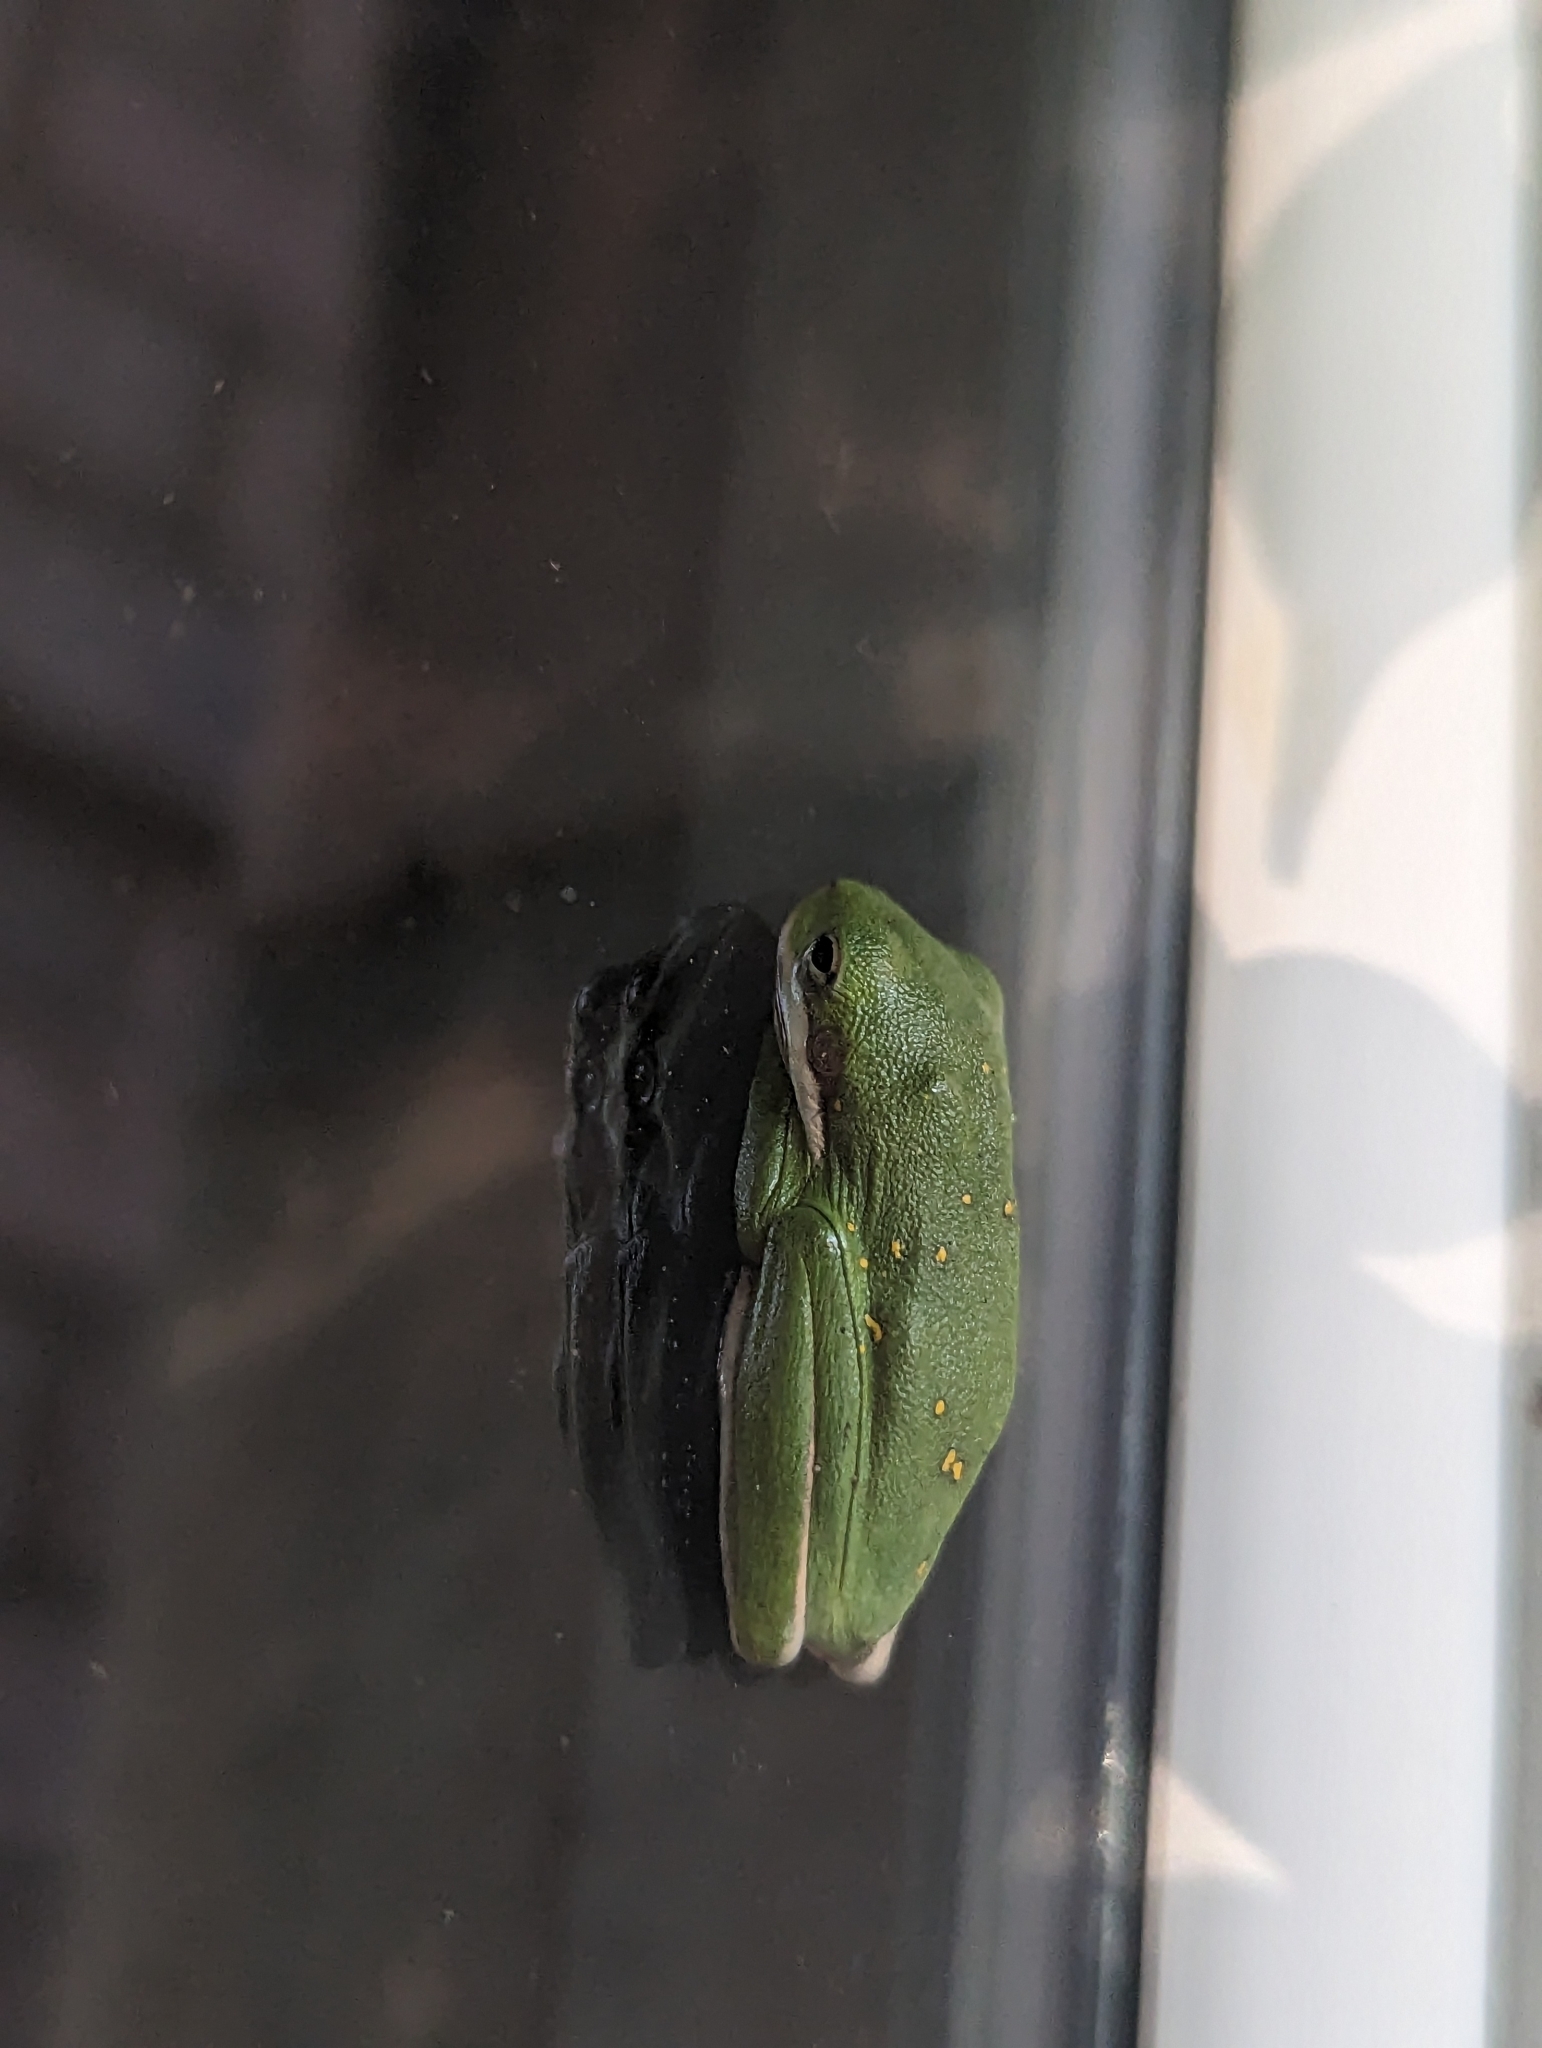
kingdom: Animalia
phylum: Chordata
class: Amphibia
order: Anura
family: Hylidae
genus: Dryophytes
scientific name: Dryophytes cinereus
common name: Green treefrog
